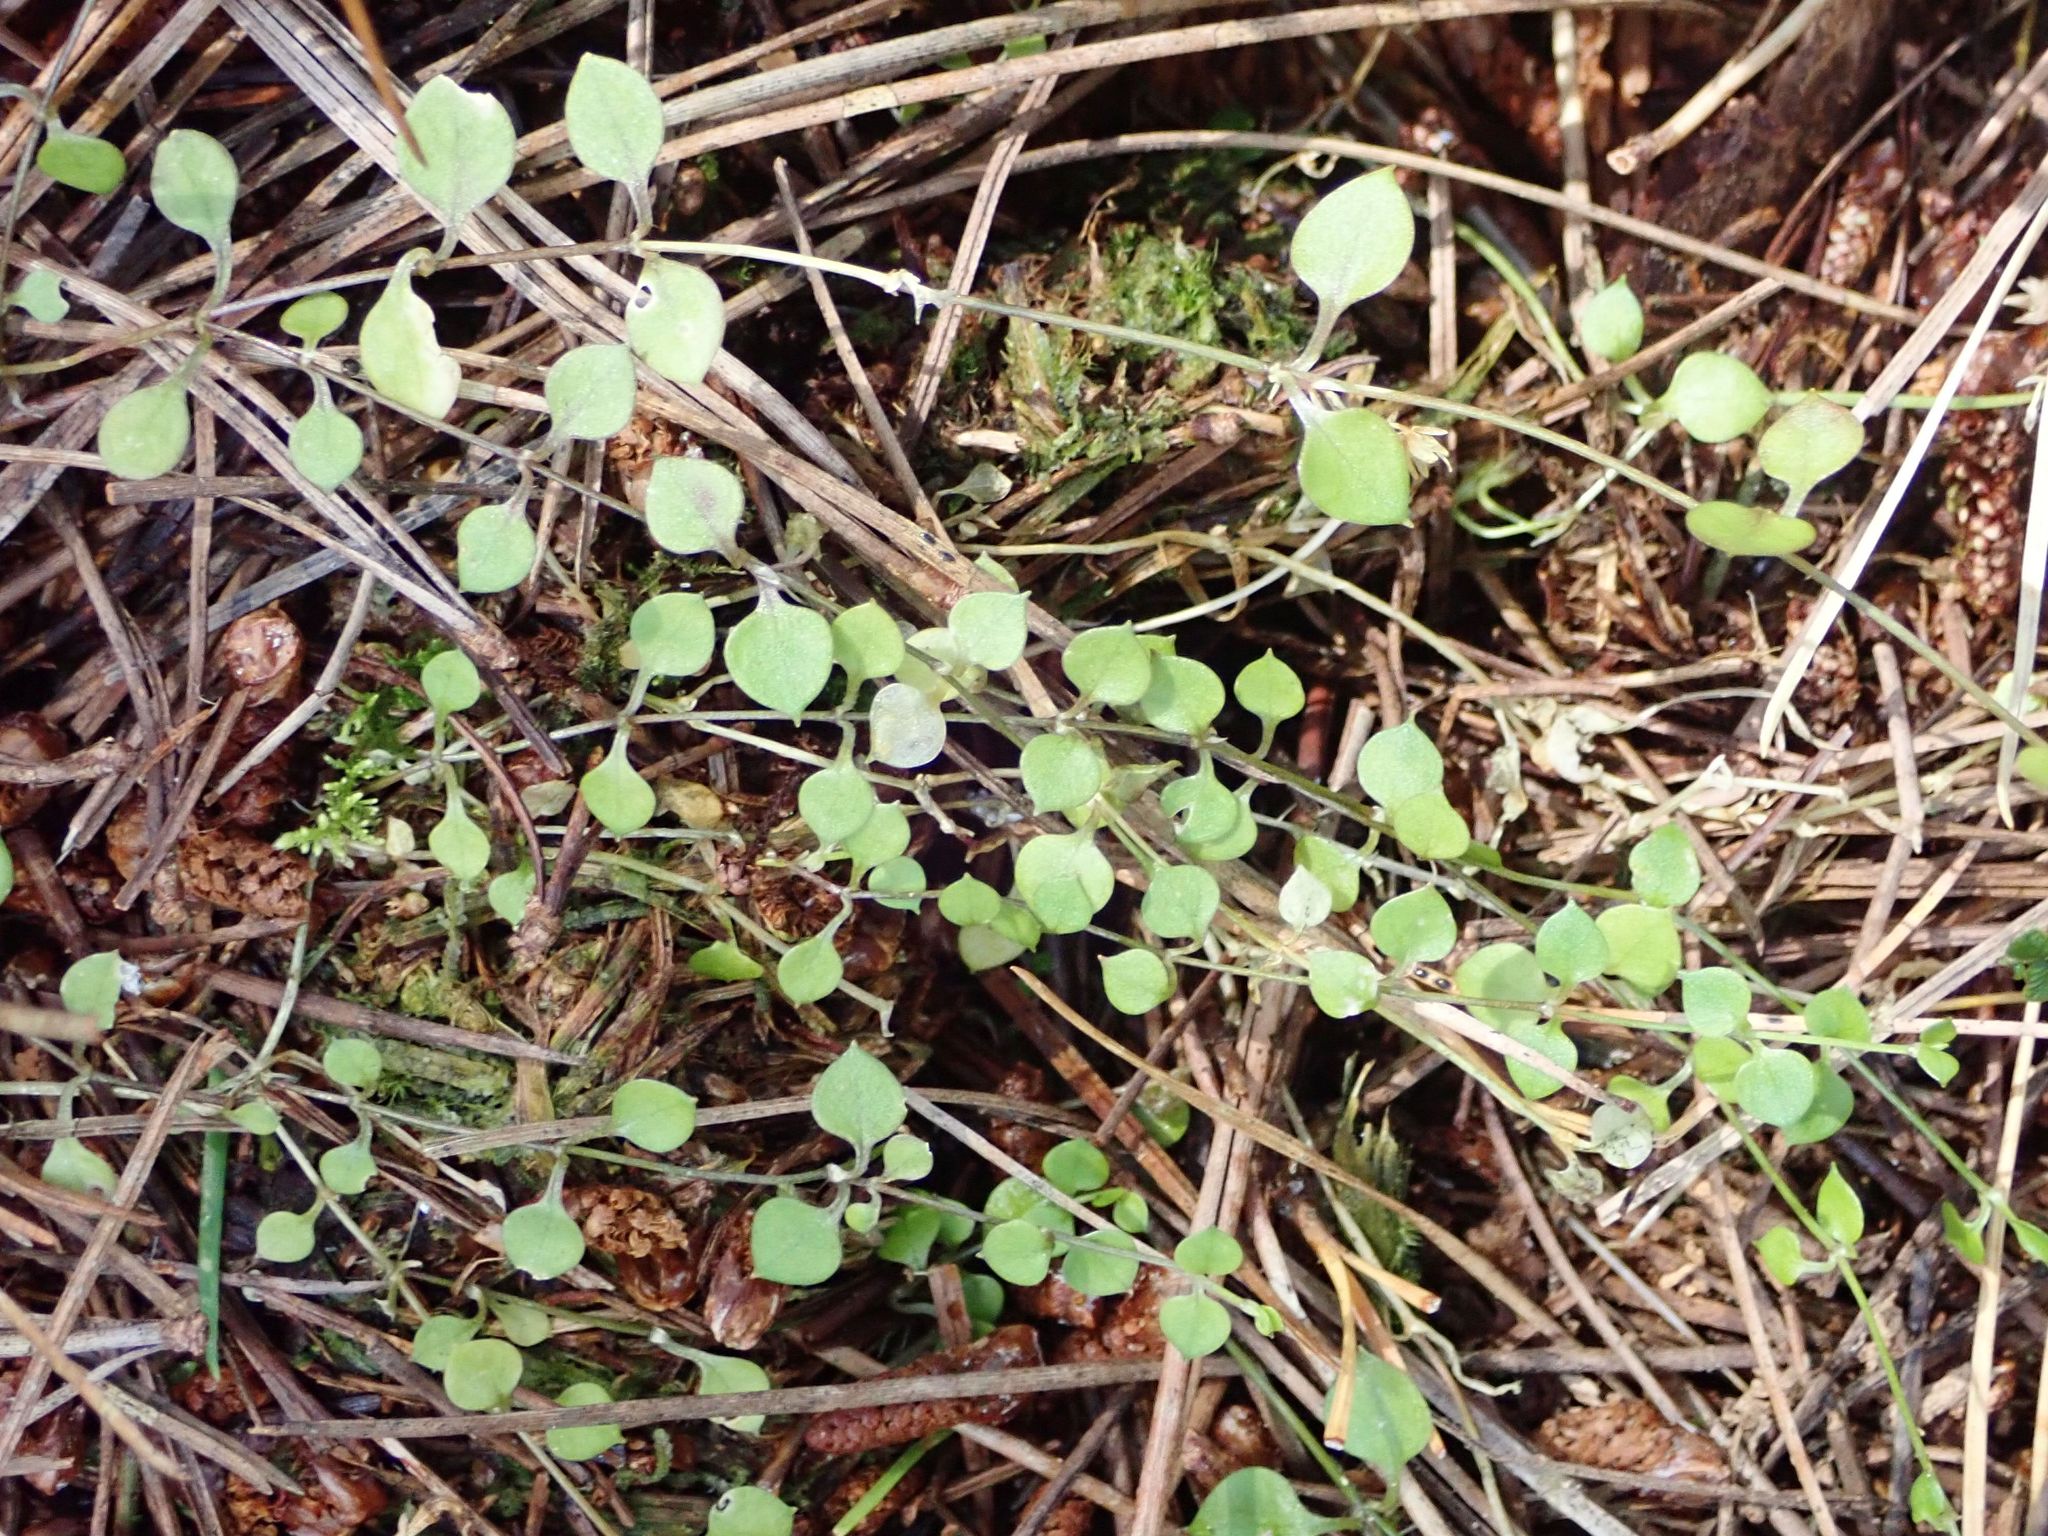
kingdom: Plantae
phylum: Tracheophyta
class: Magnoliopsida
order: Caryophyllales
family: Caryophyllaceae
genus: Stellaria
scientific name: Stellaria parviflora
